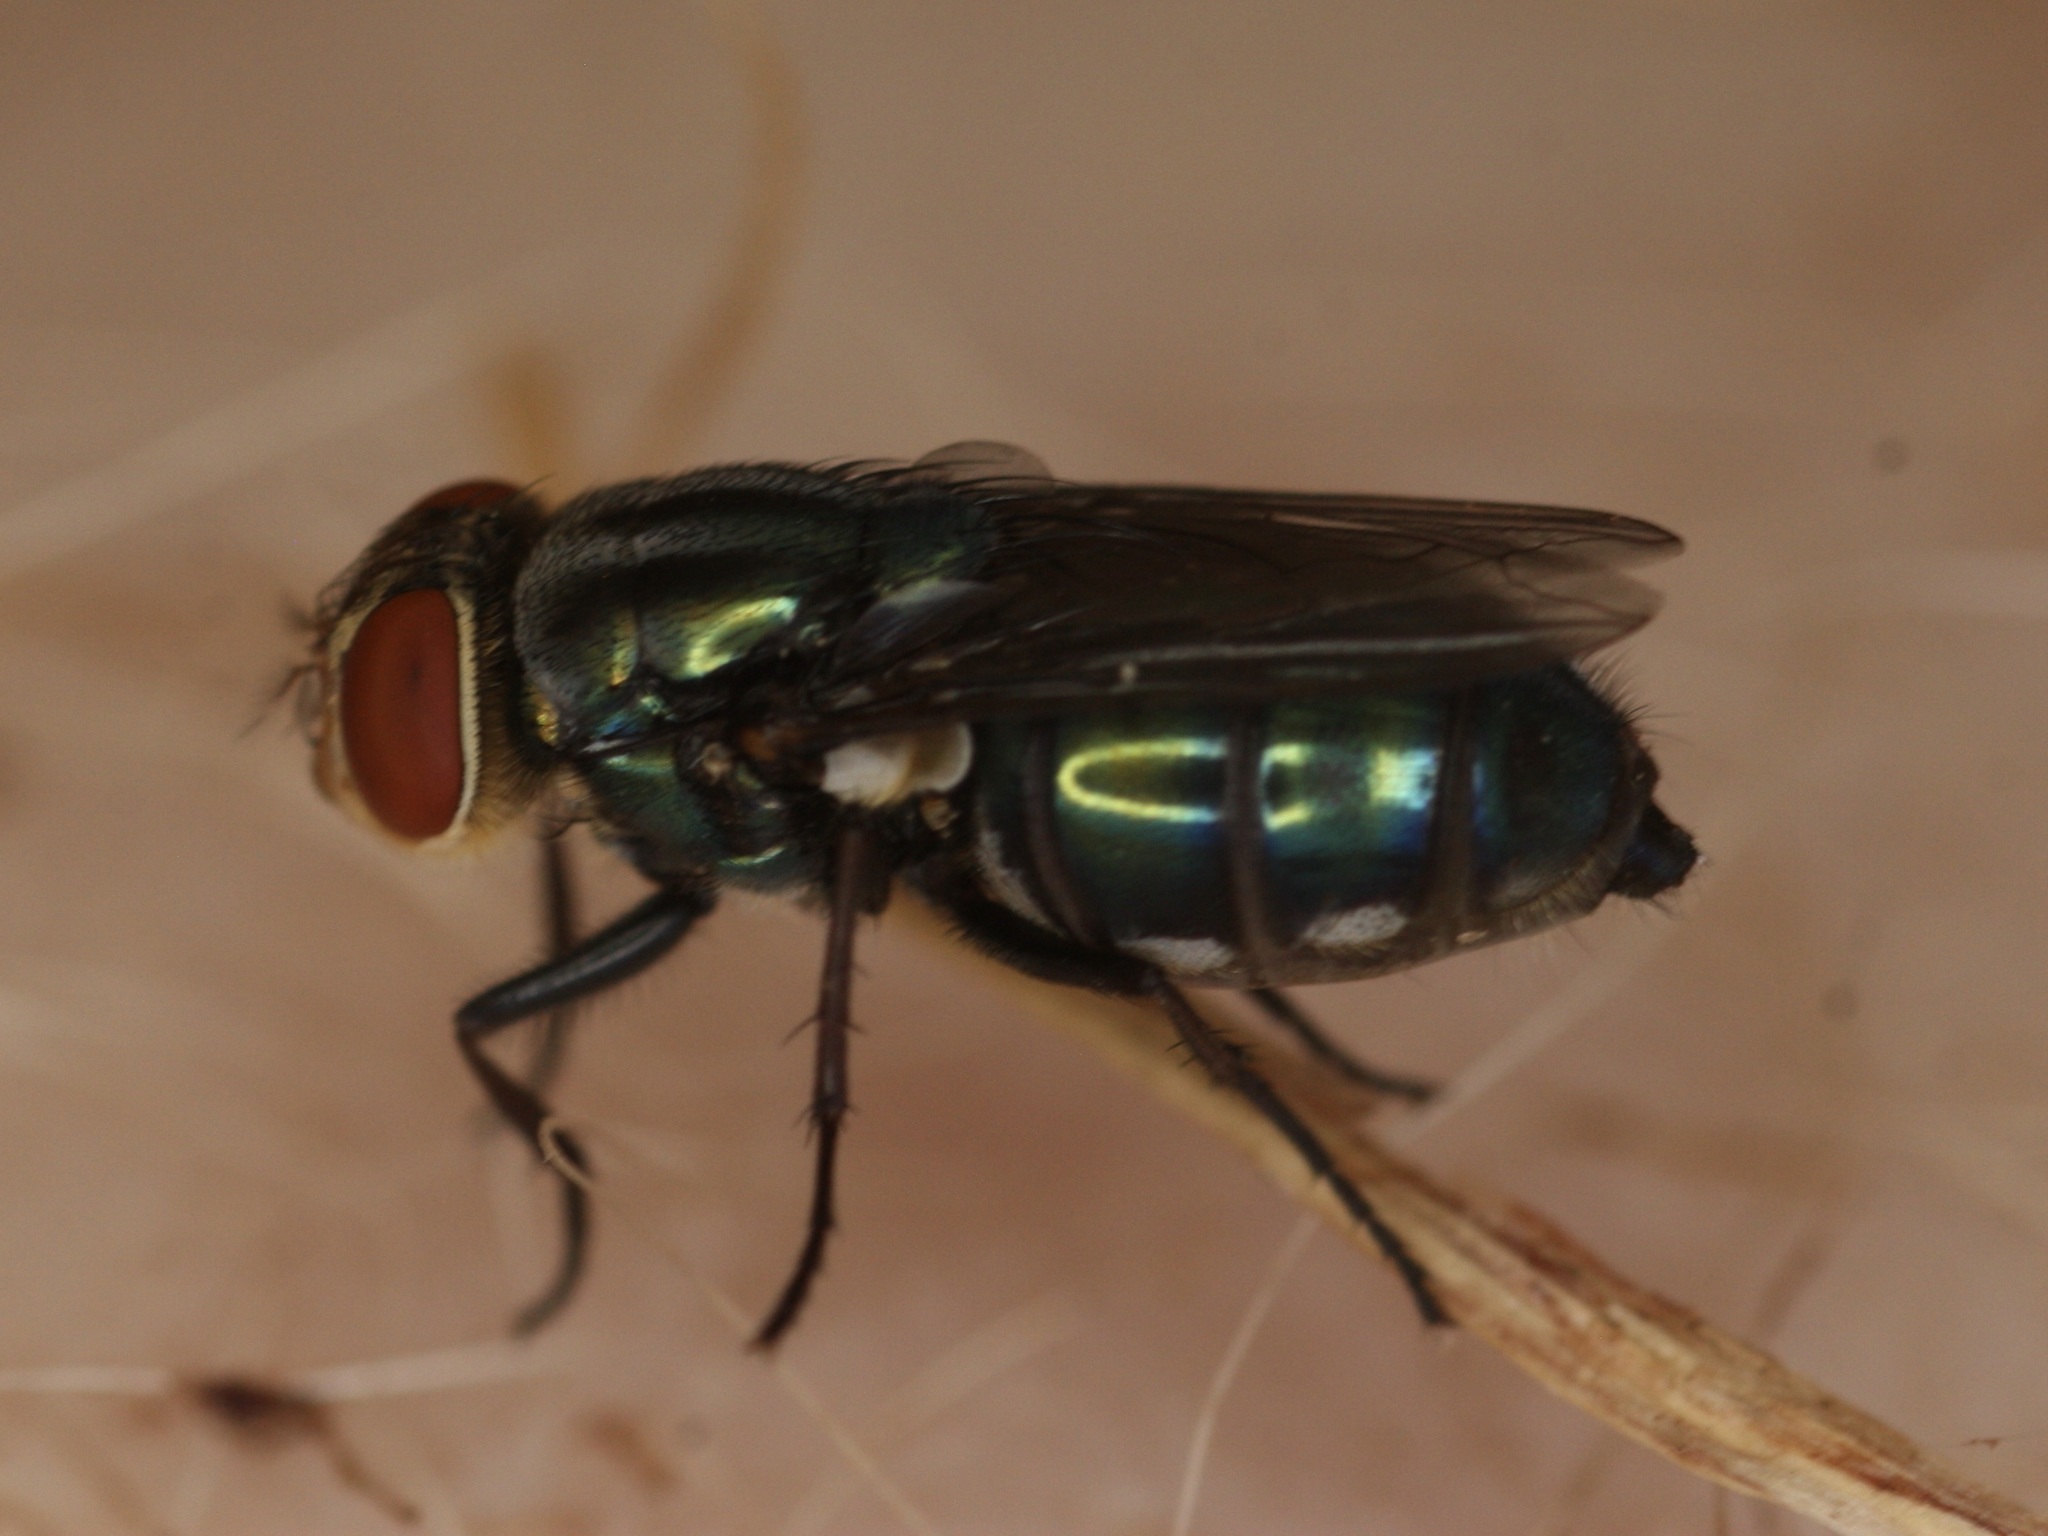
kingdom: Animalia
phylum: Arthropoda
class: Insecta
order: Diptera
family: Calliphoridae
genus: Cochliomyia
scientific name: Cochliomyia macellaria
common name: Secondary screwworm
